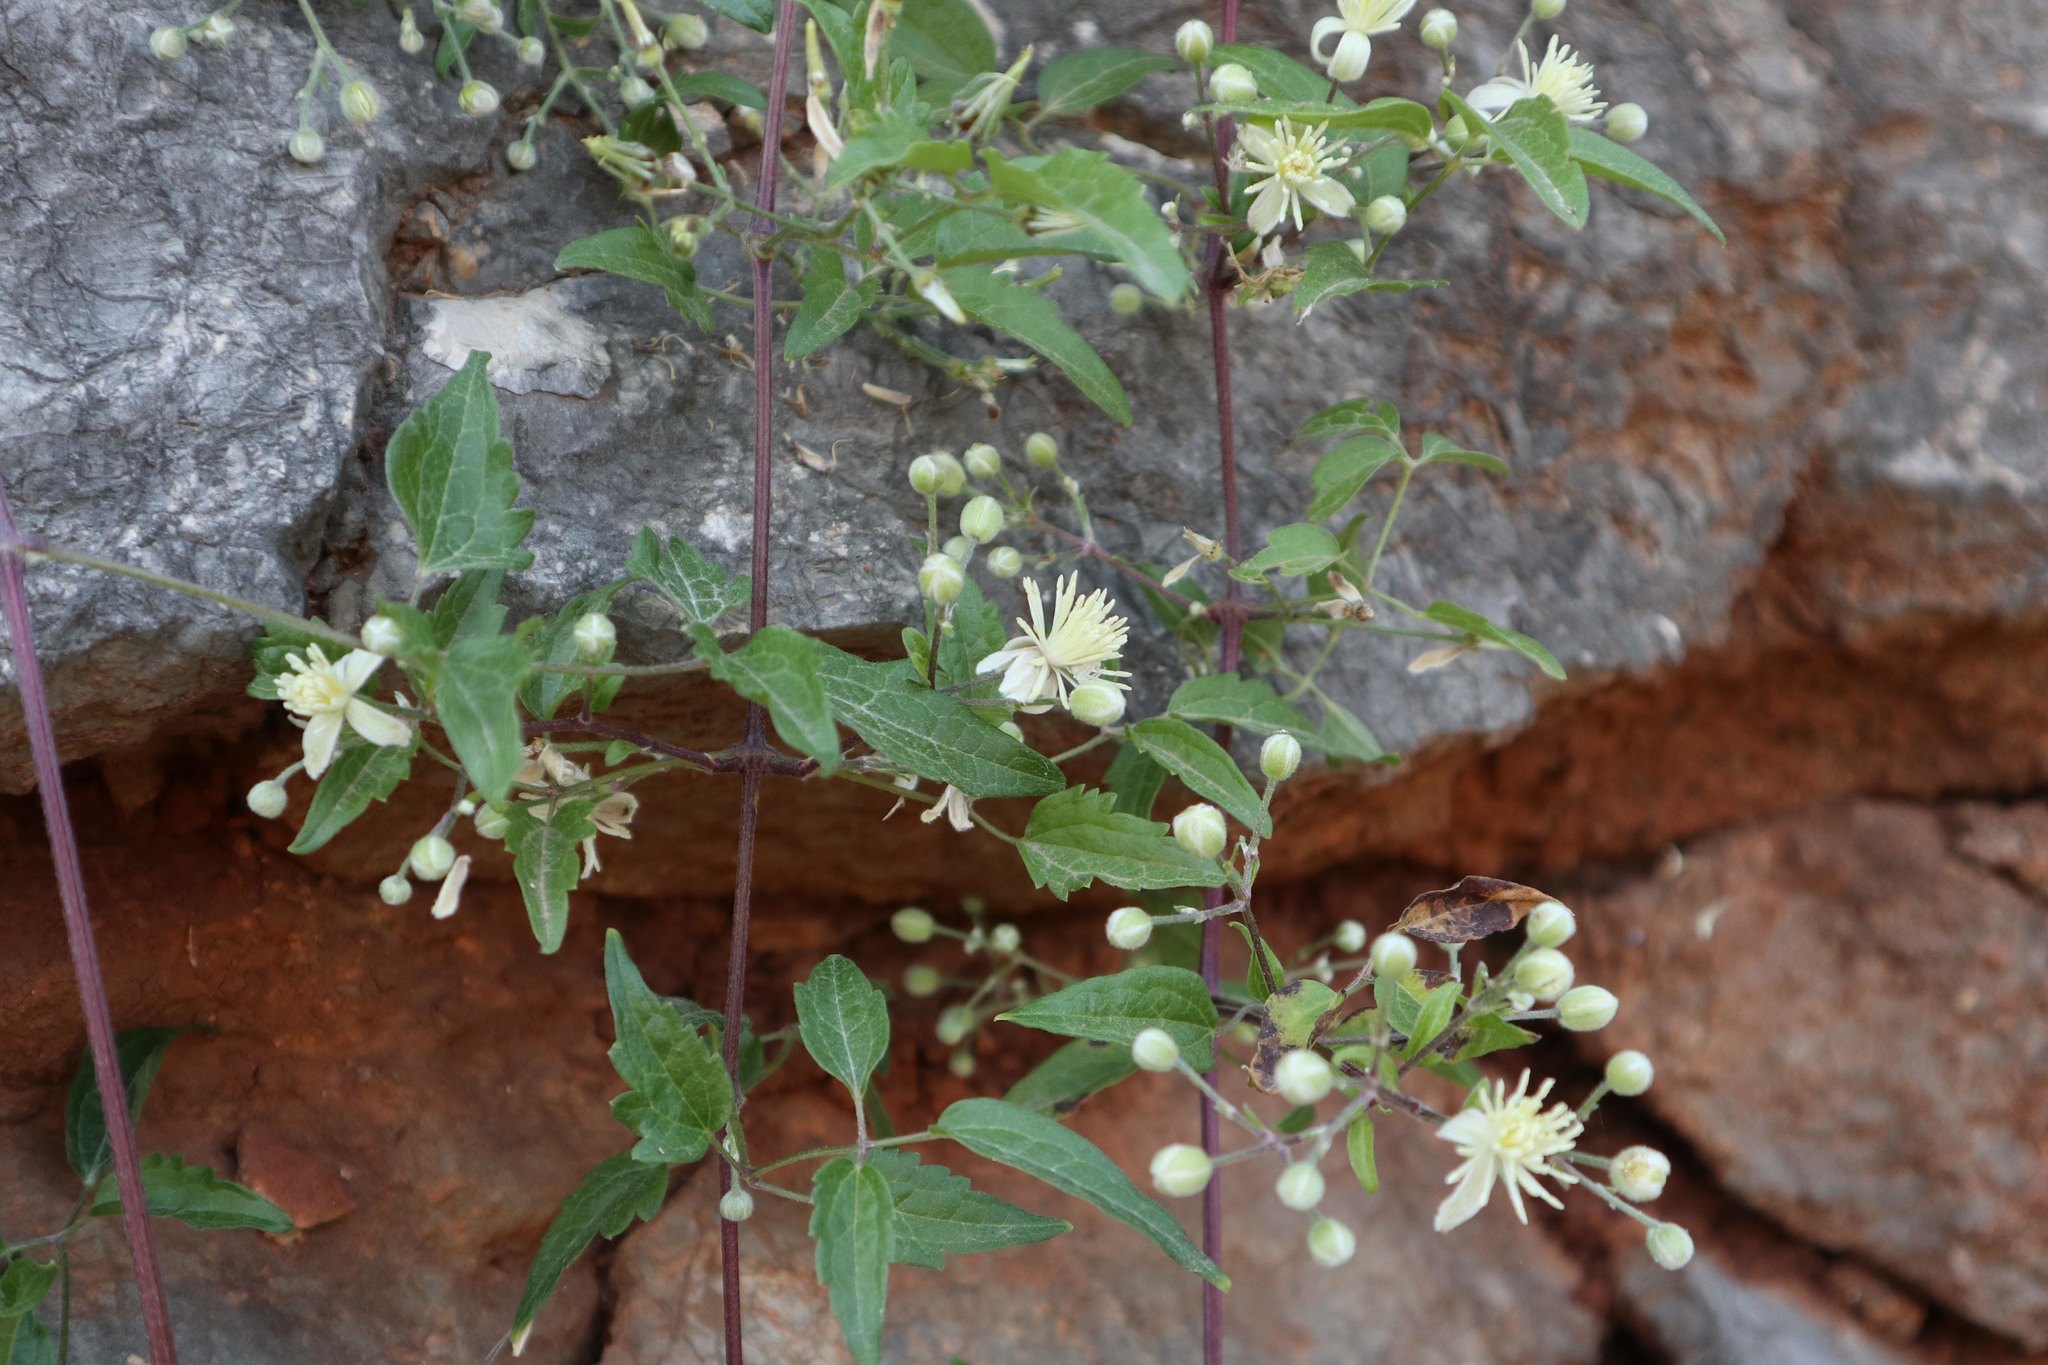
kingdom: Plantae
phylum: Tracheophyta
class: Magnoliopsida
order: Ranunculales
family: Ranunculaceae
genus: Clematis
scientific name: Clematis vitalba
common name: Evergreen clematis
